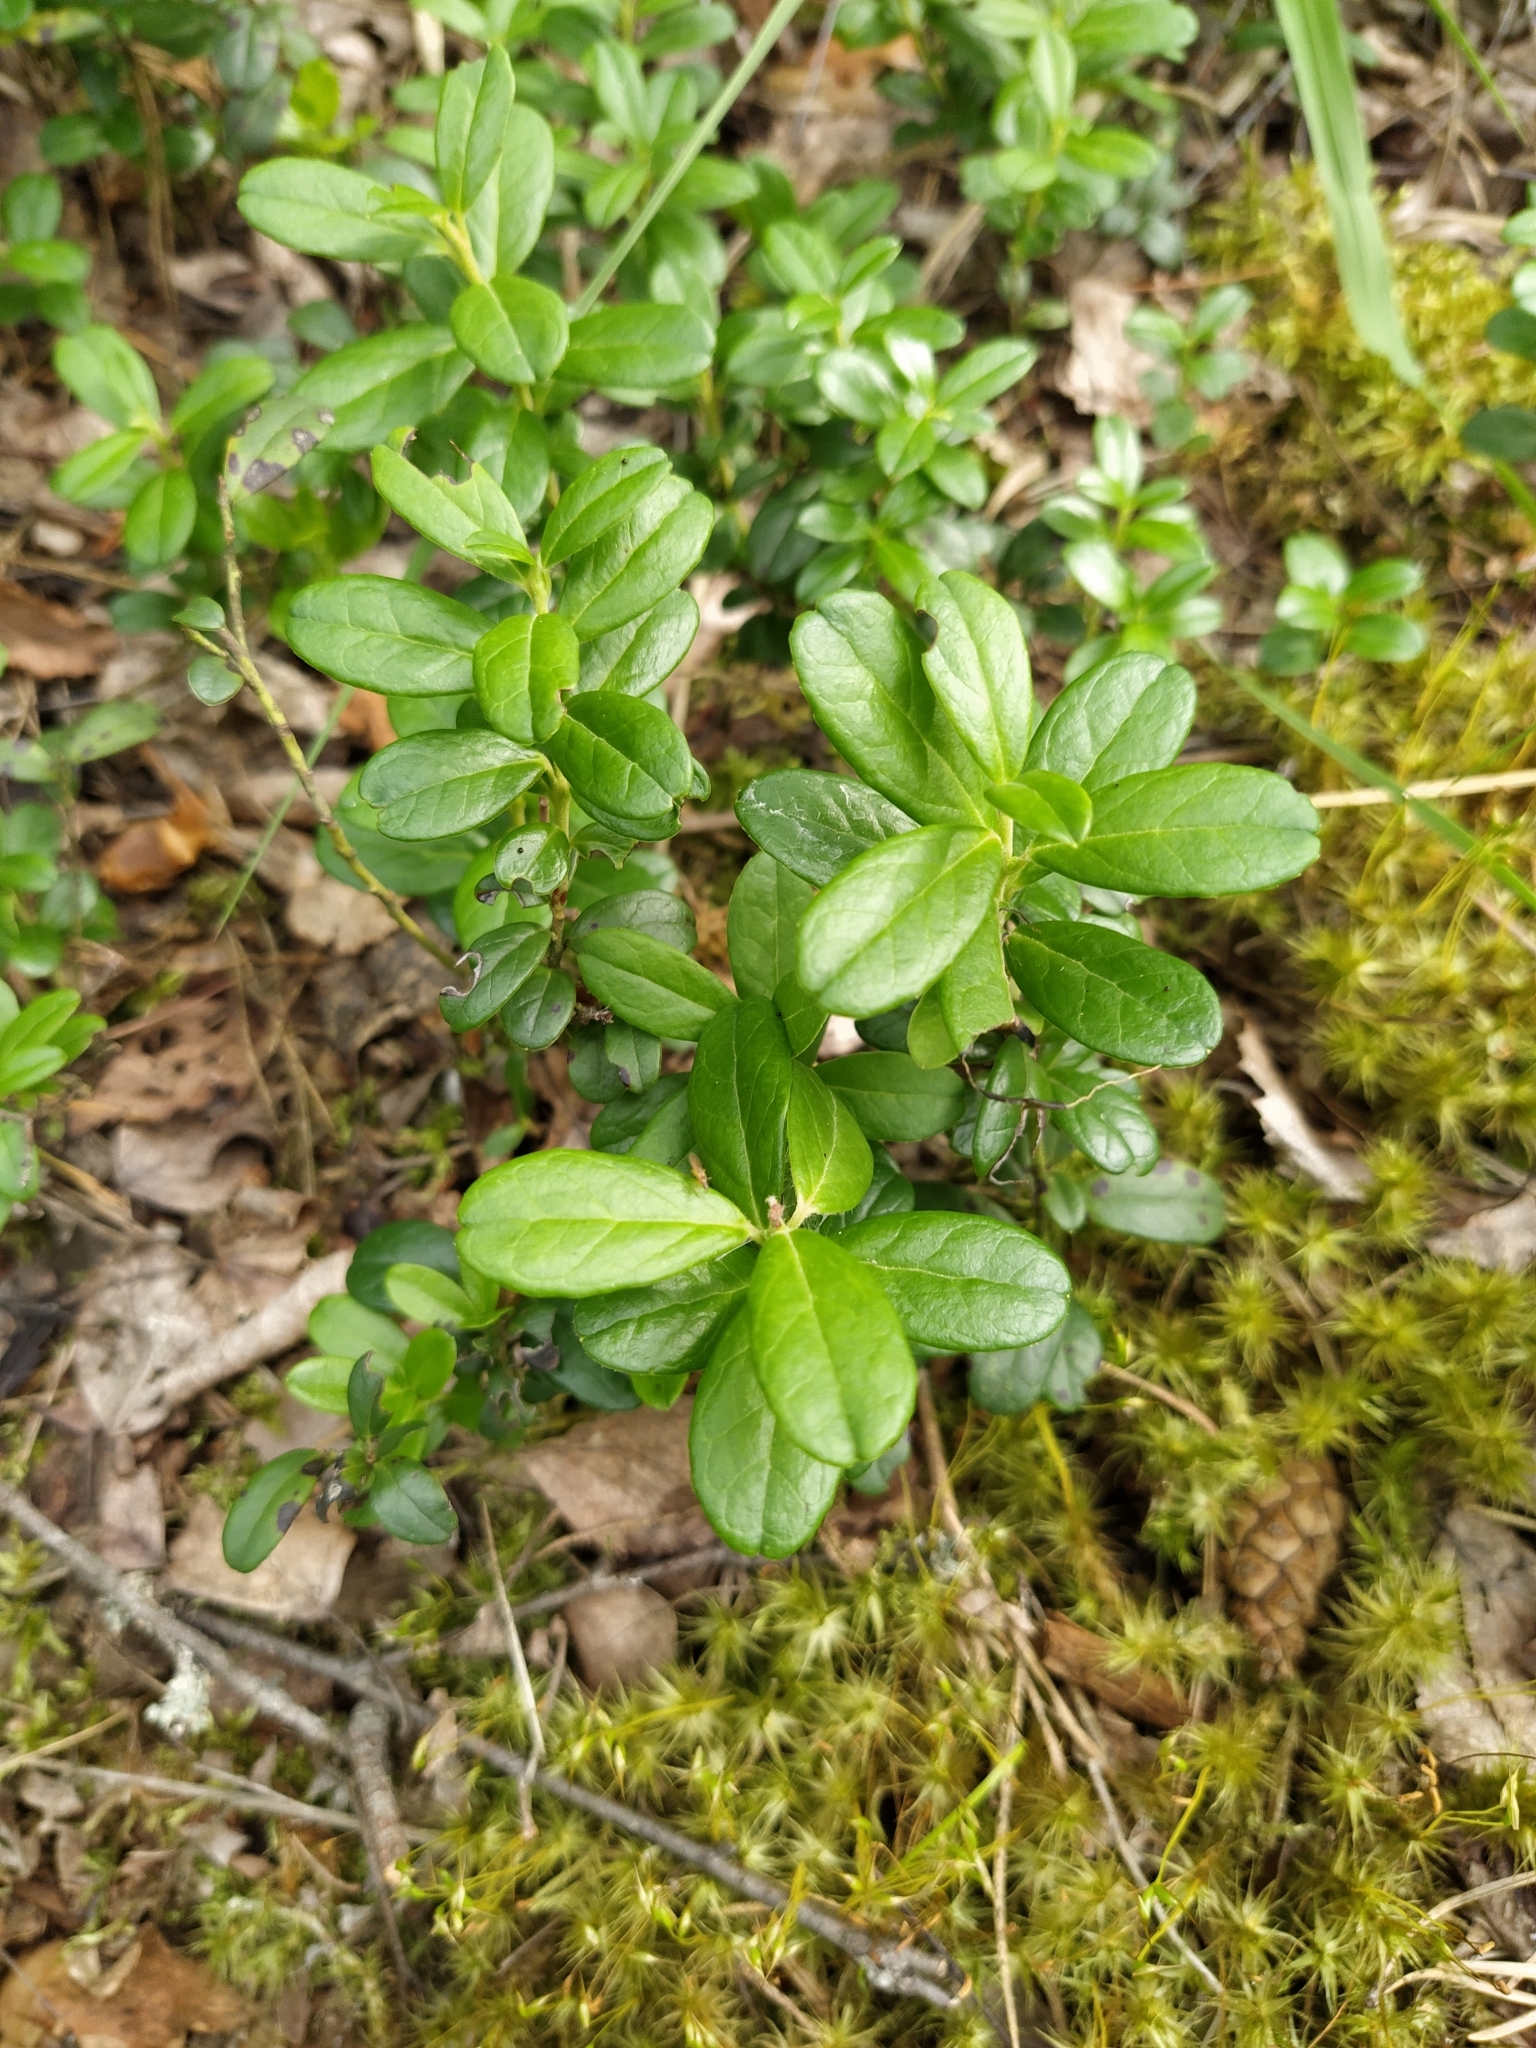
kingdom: Plantae
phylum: Tracheophyta
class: Magnoliopsida
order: Ericales
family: Ericaceae
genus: Vaccinium
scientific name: Vaccinium vitis-idaea
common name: Cowberry
